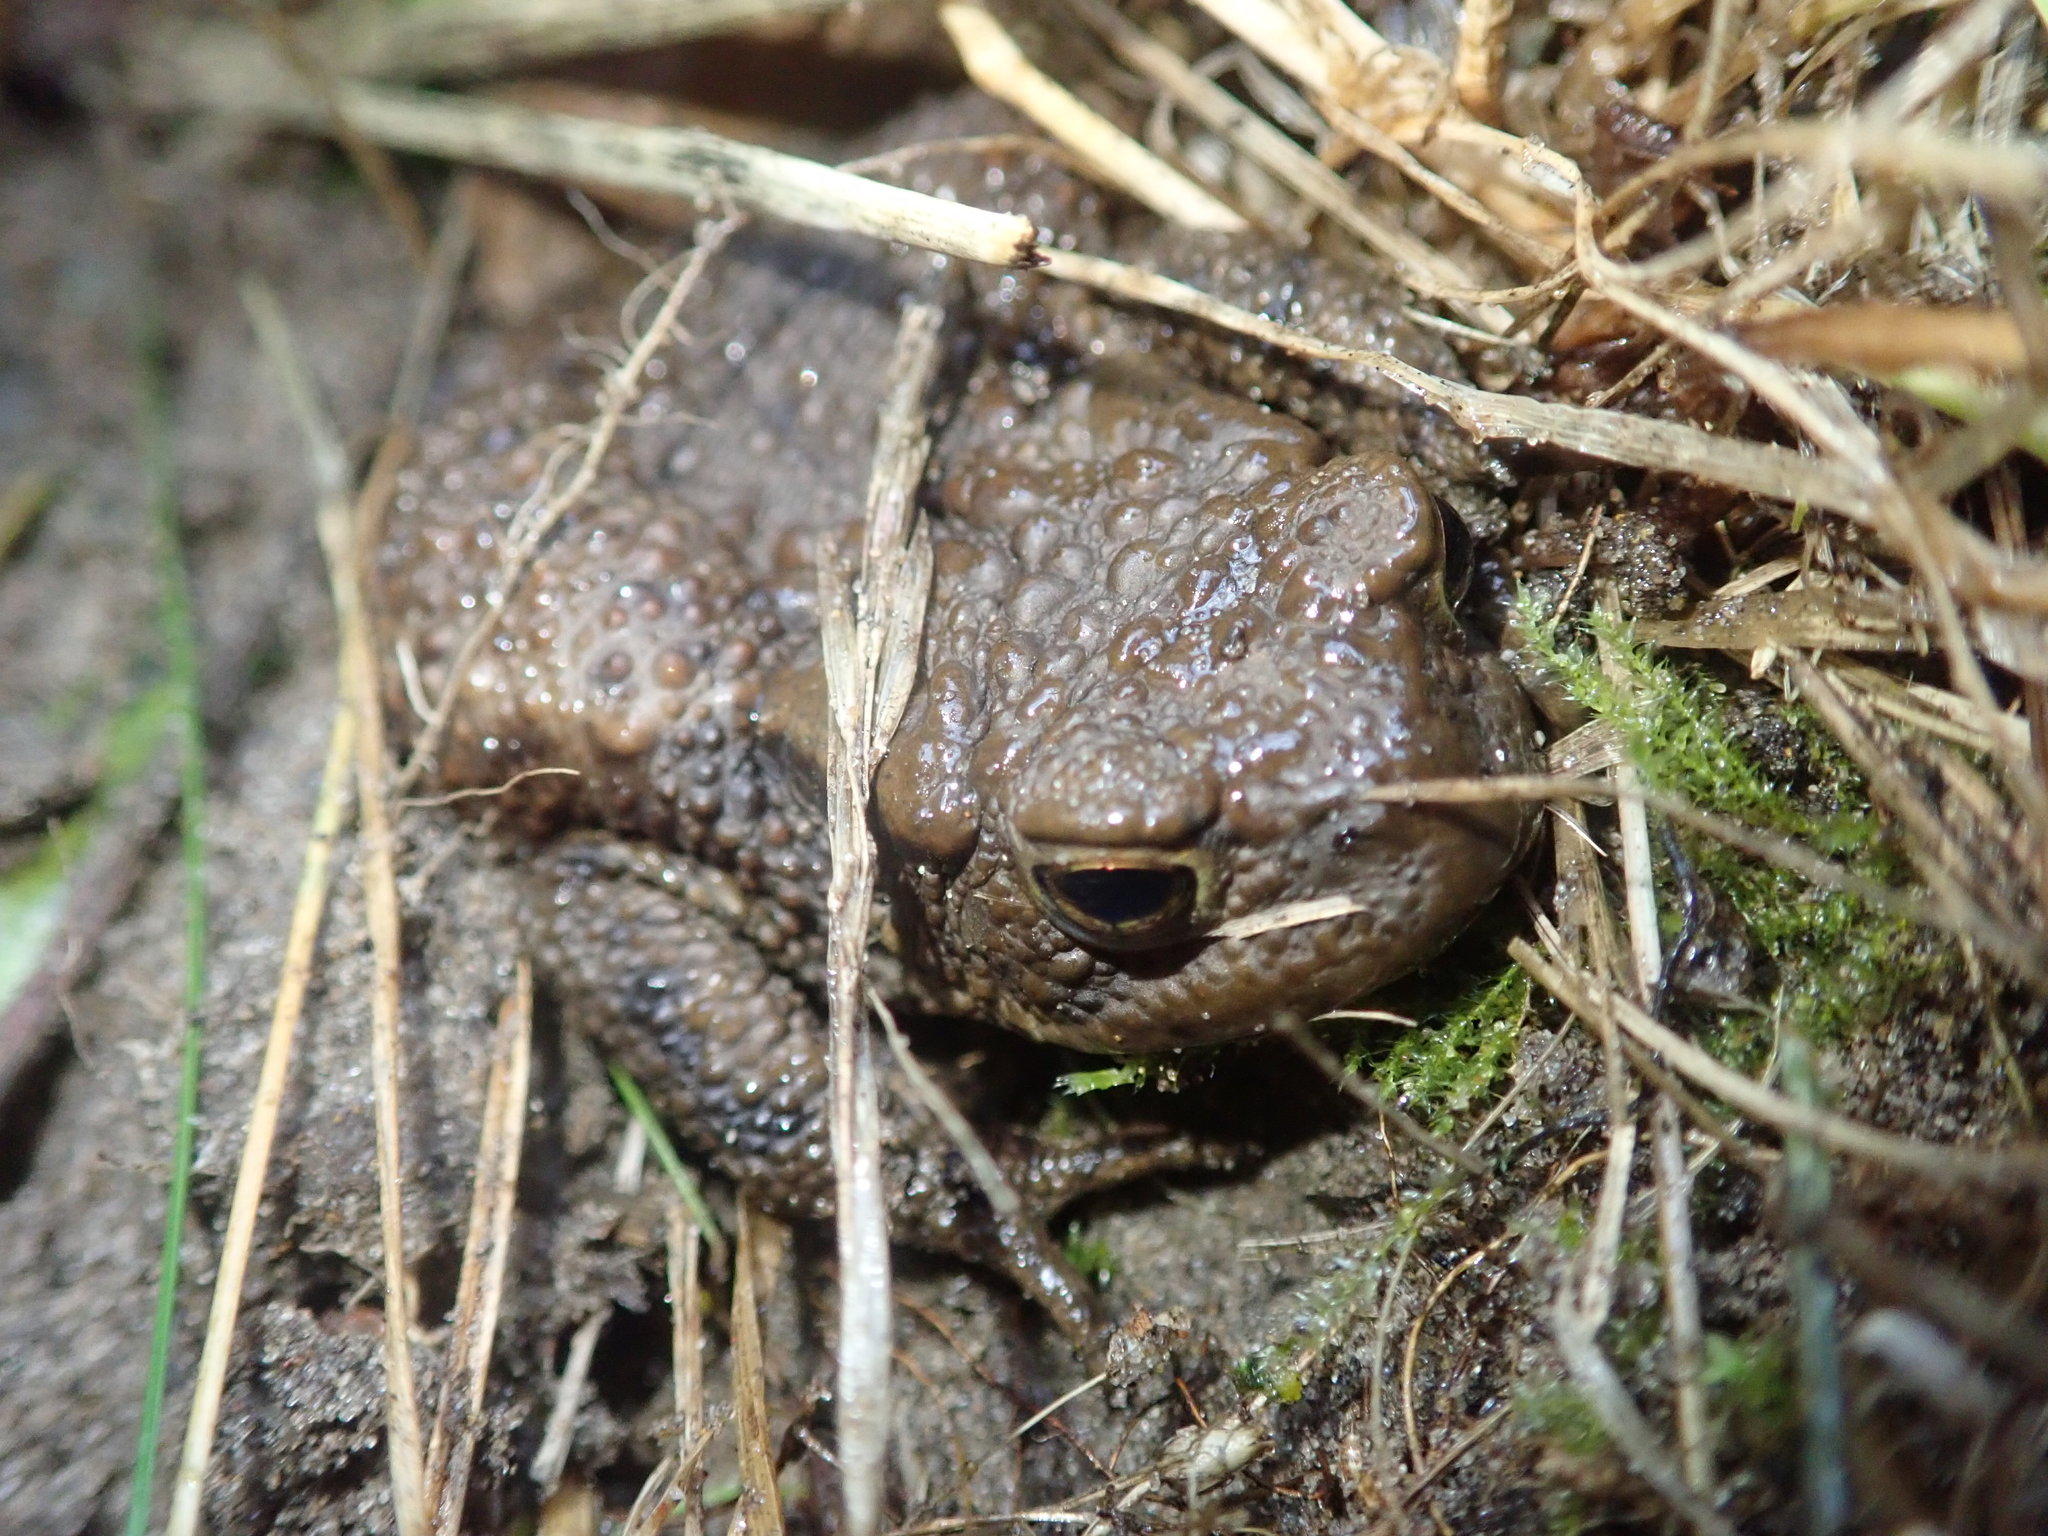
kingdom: Animalia
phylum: Chordata
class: Amphibia
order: Anura
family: Bufonidae
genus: Bufo
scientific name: Bufo bufo
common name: Common toad
